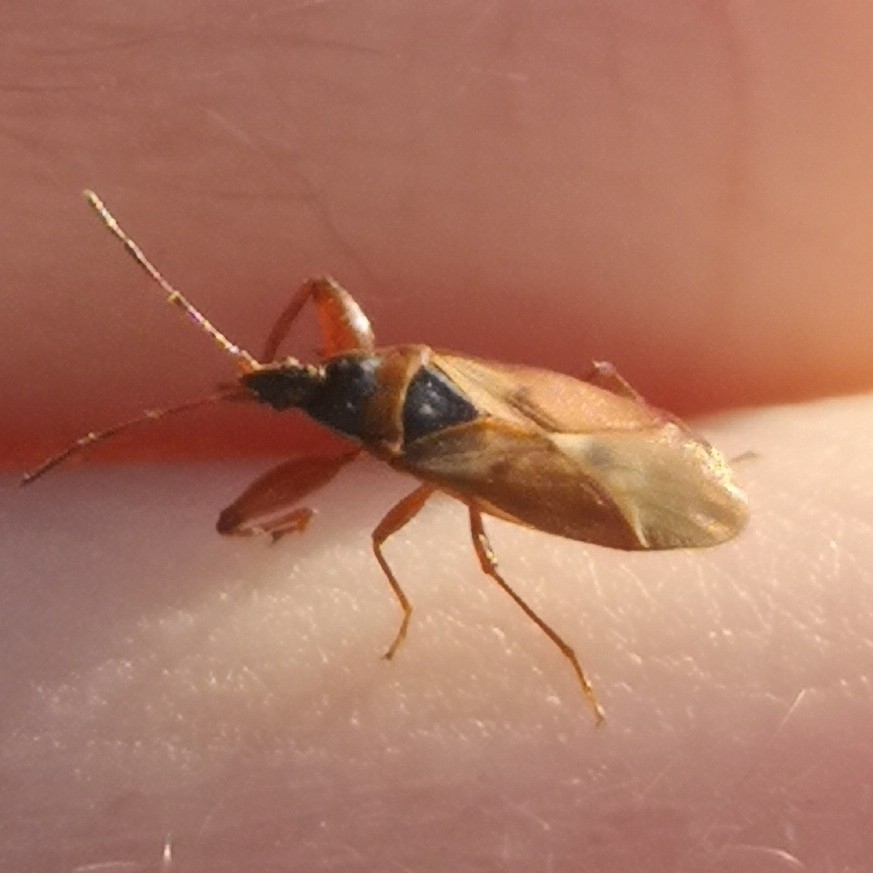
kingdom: Animalia
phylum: Arthropoda
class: Insecta
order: Hemiptera
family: Rhyparochromidae
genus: Gastrodes
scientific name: Gastrodes abietum
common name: Spruce cone bug
